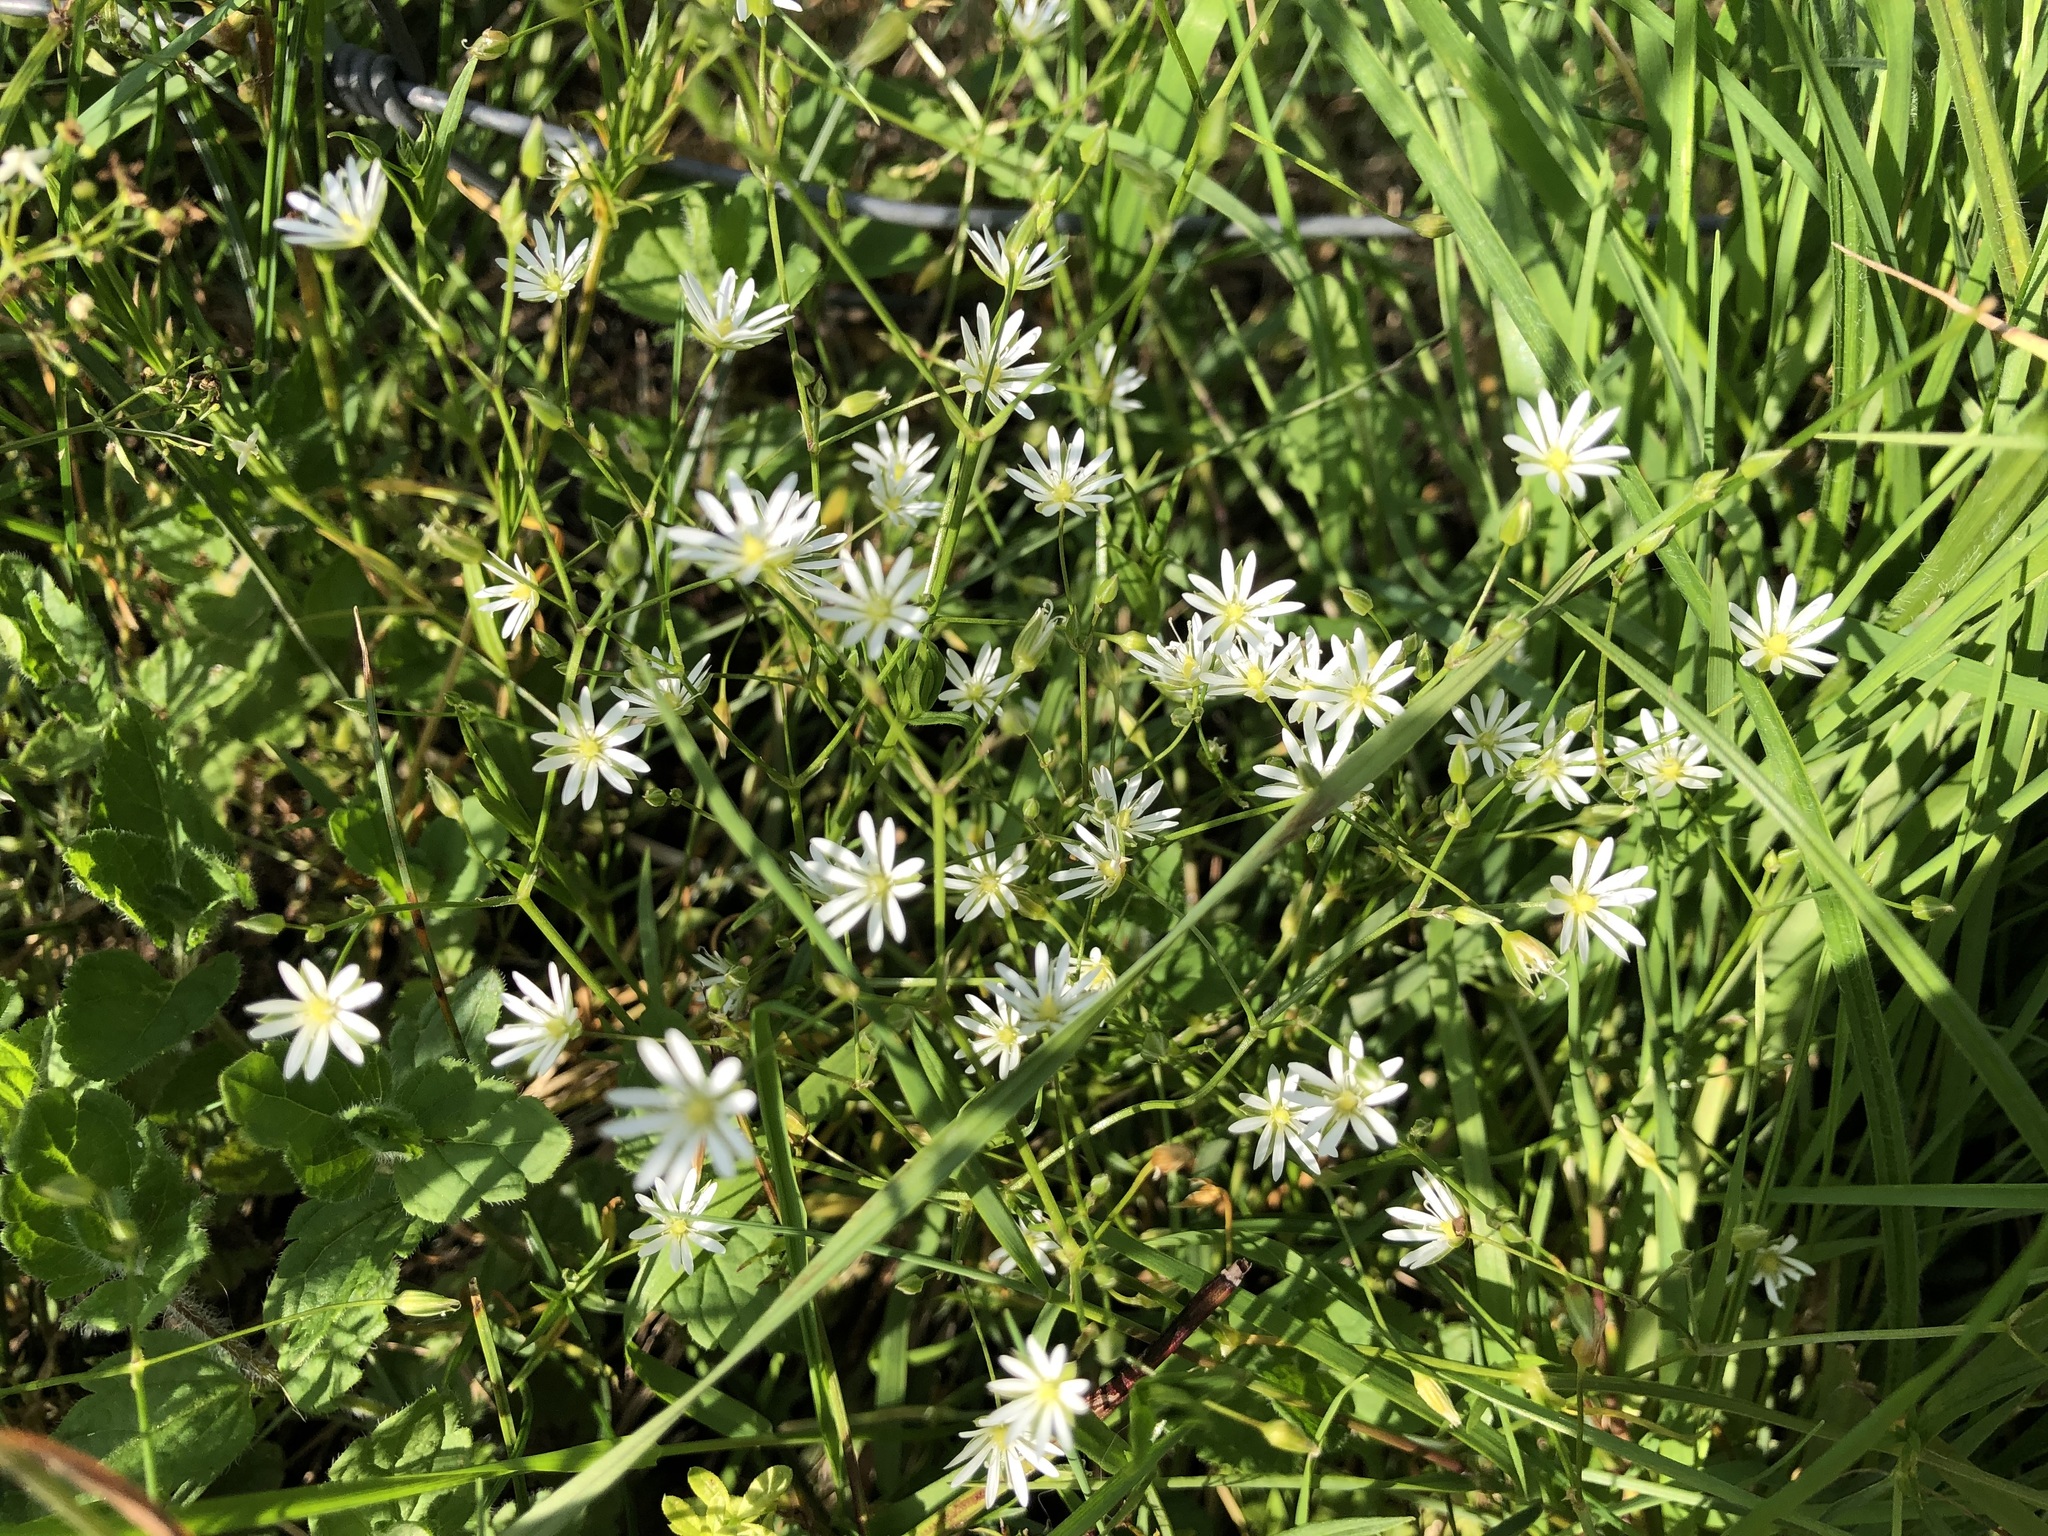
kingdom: Plantae
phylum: Tracheophyta
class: Magnoliopsida
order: Caryophyllales
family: Caryophyllaceae
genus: Stellaria
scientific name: Stellaria graminea
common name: Grass-like starwort
